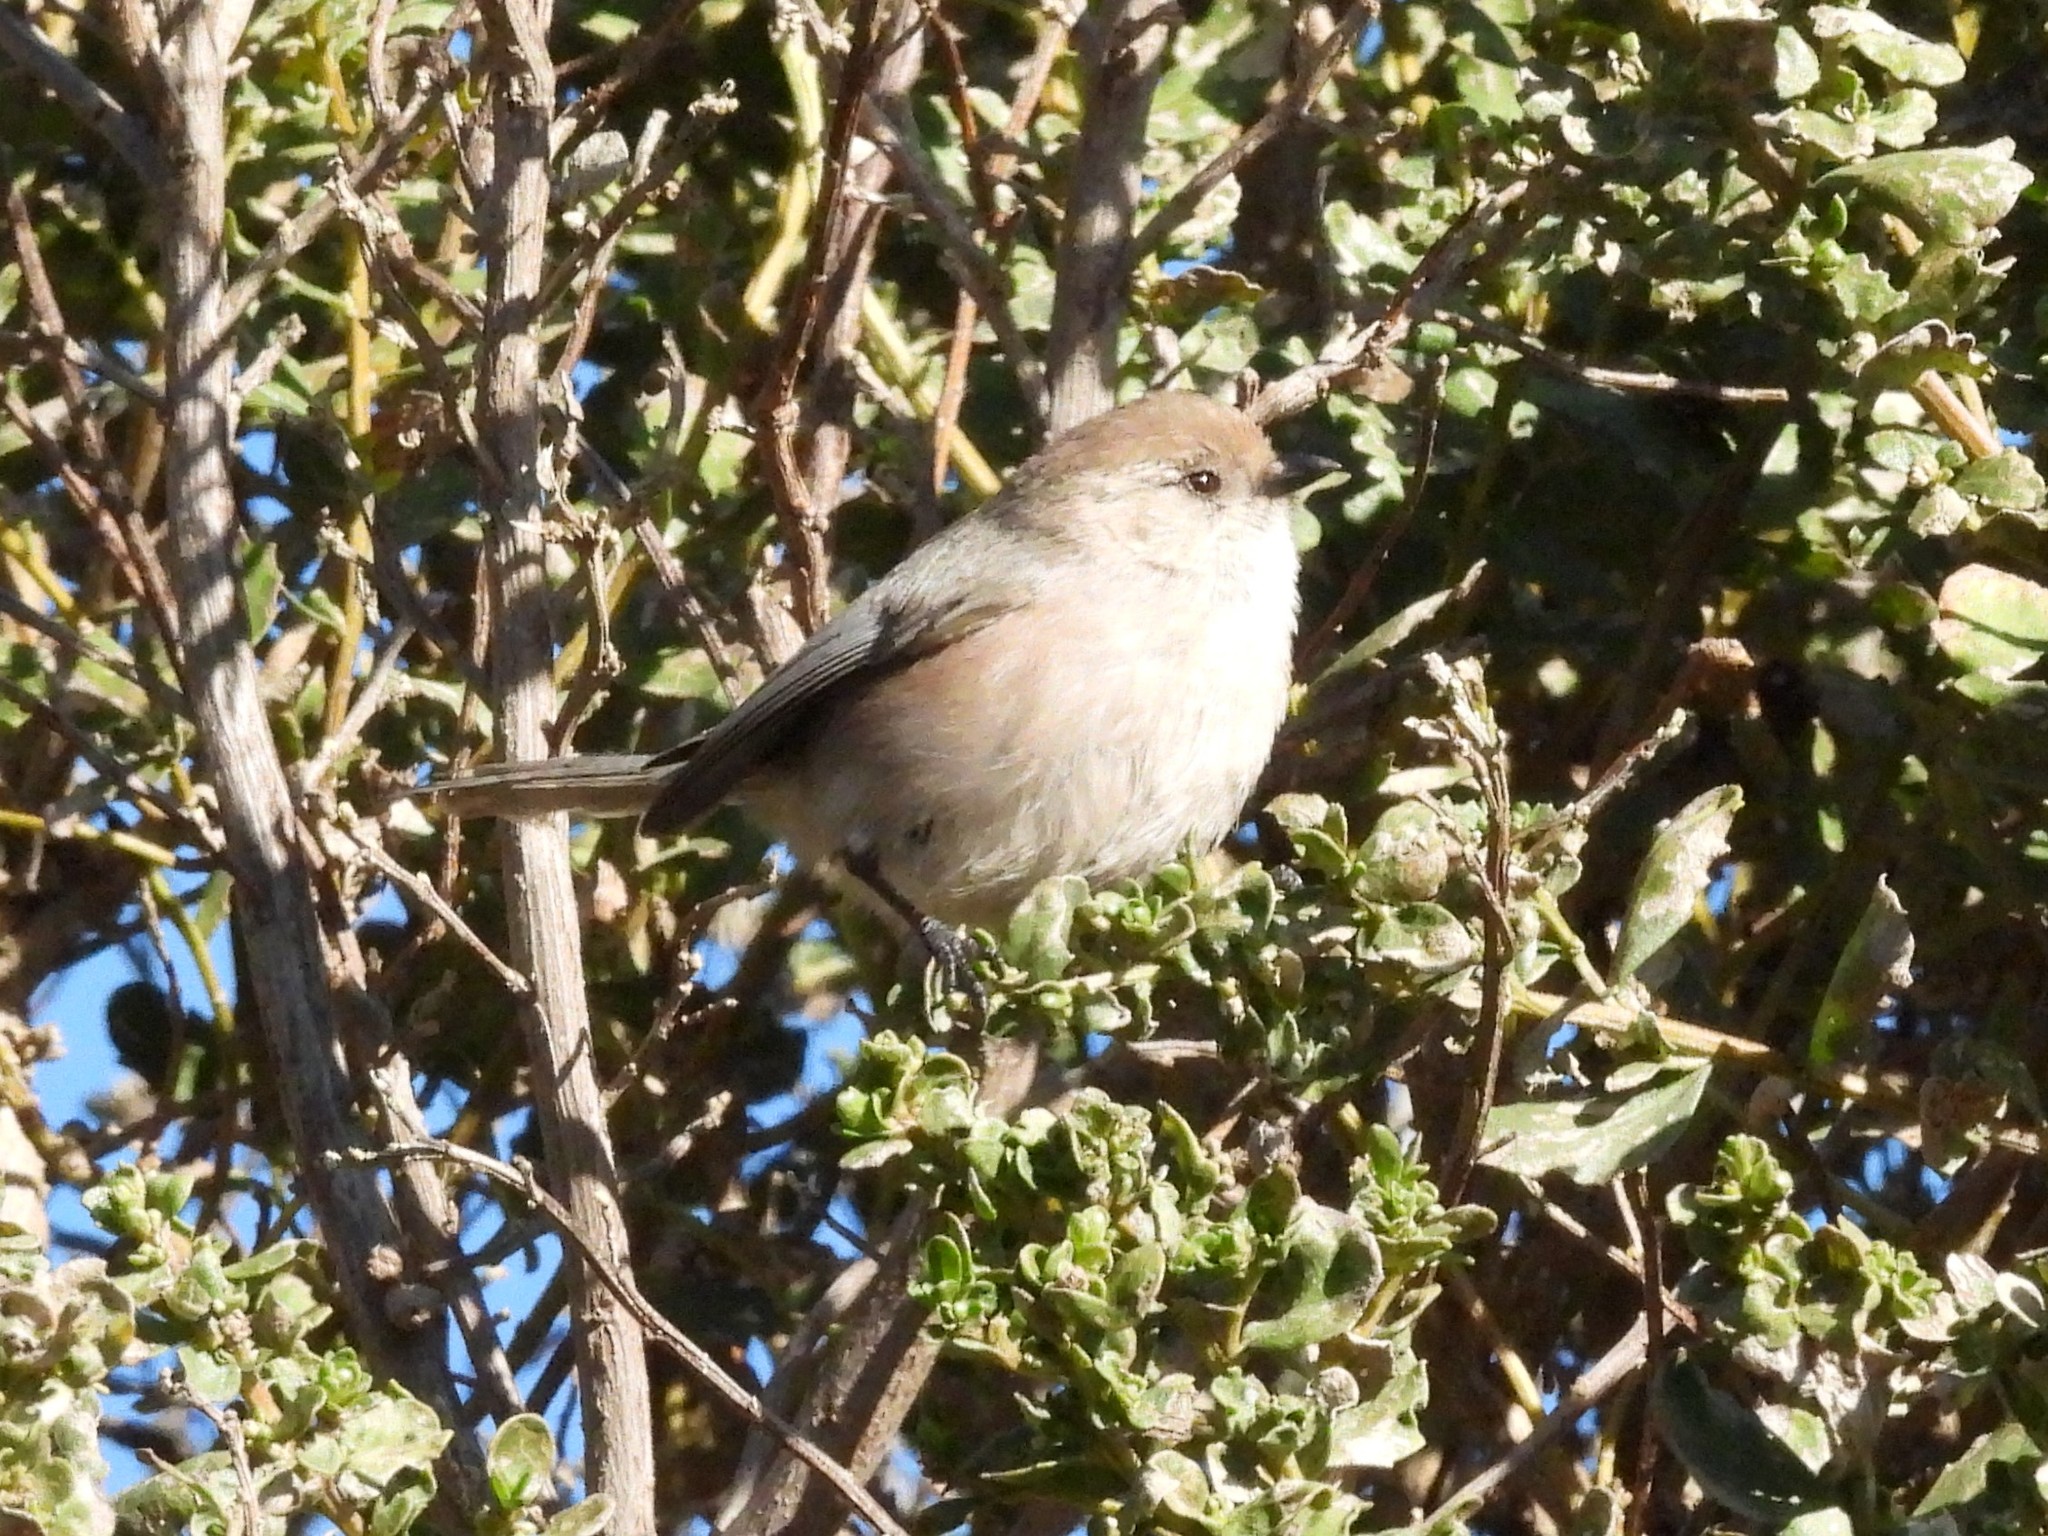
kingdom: Animalia
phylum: Chordata
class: Aves
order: Passeriformes
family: Aegithalidae
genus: Psaltriparus
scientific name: Psaltriparus minimus
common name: American bushtit
